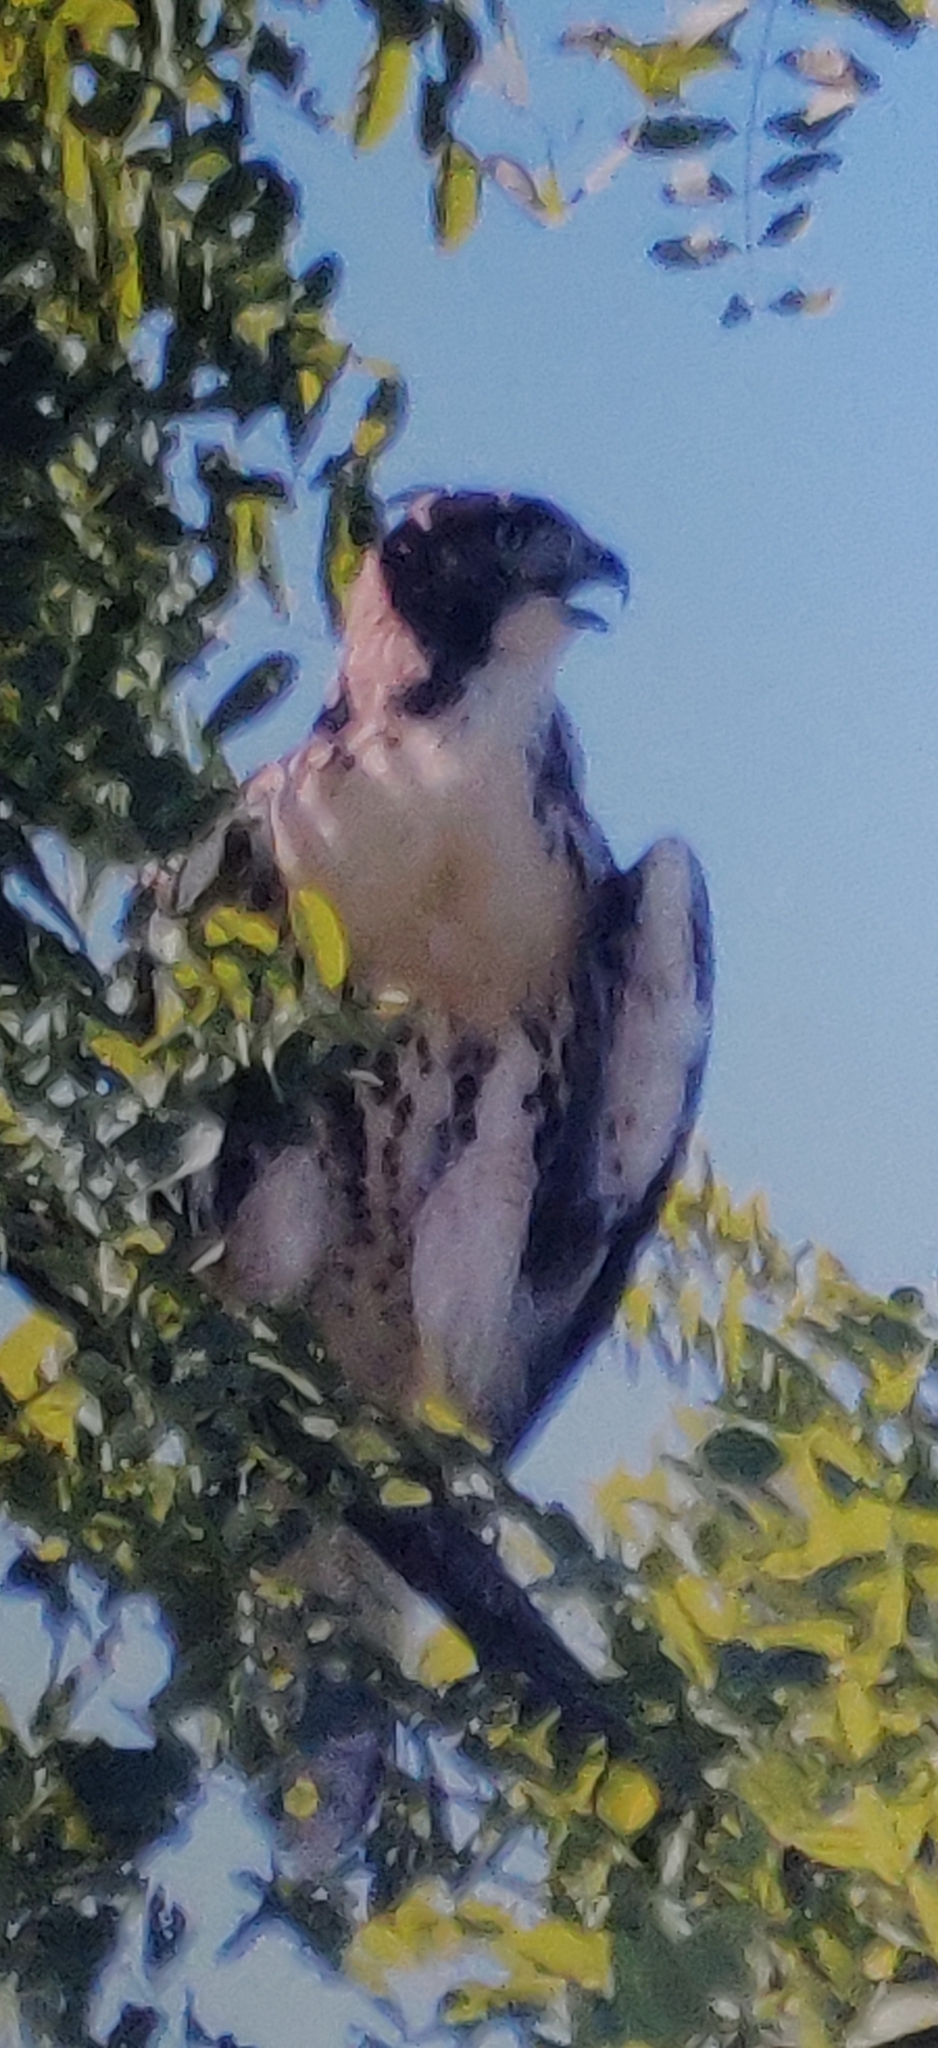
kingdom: Animalia
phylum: Chordata
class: Aves
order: Accipitriformes
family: Accipitridae
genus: Buteo
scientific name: Buteo jamaicensis
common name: Red-tailed hawk
